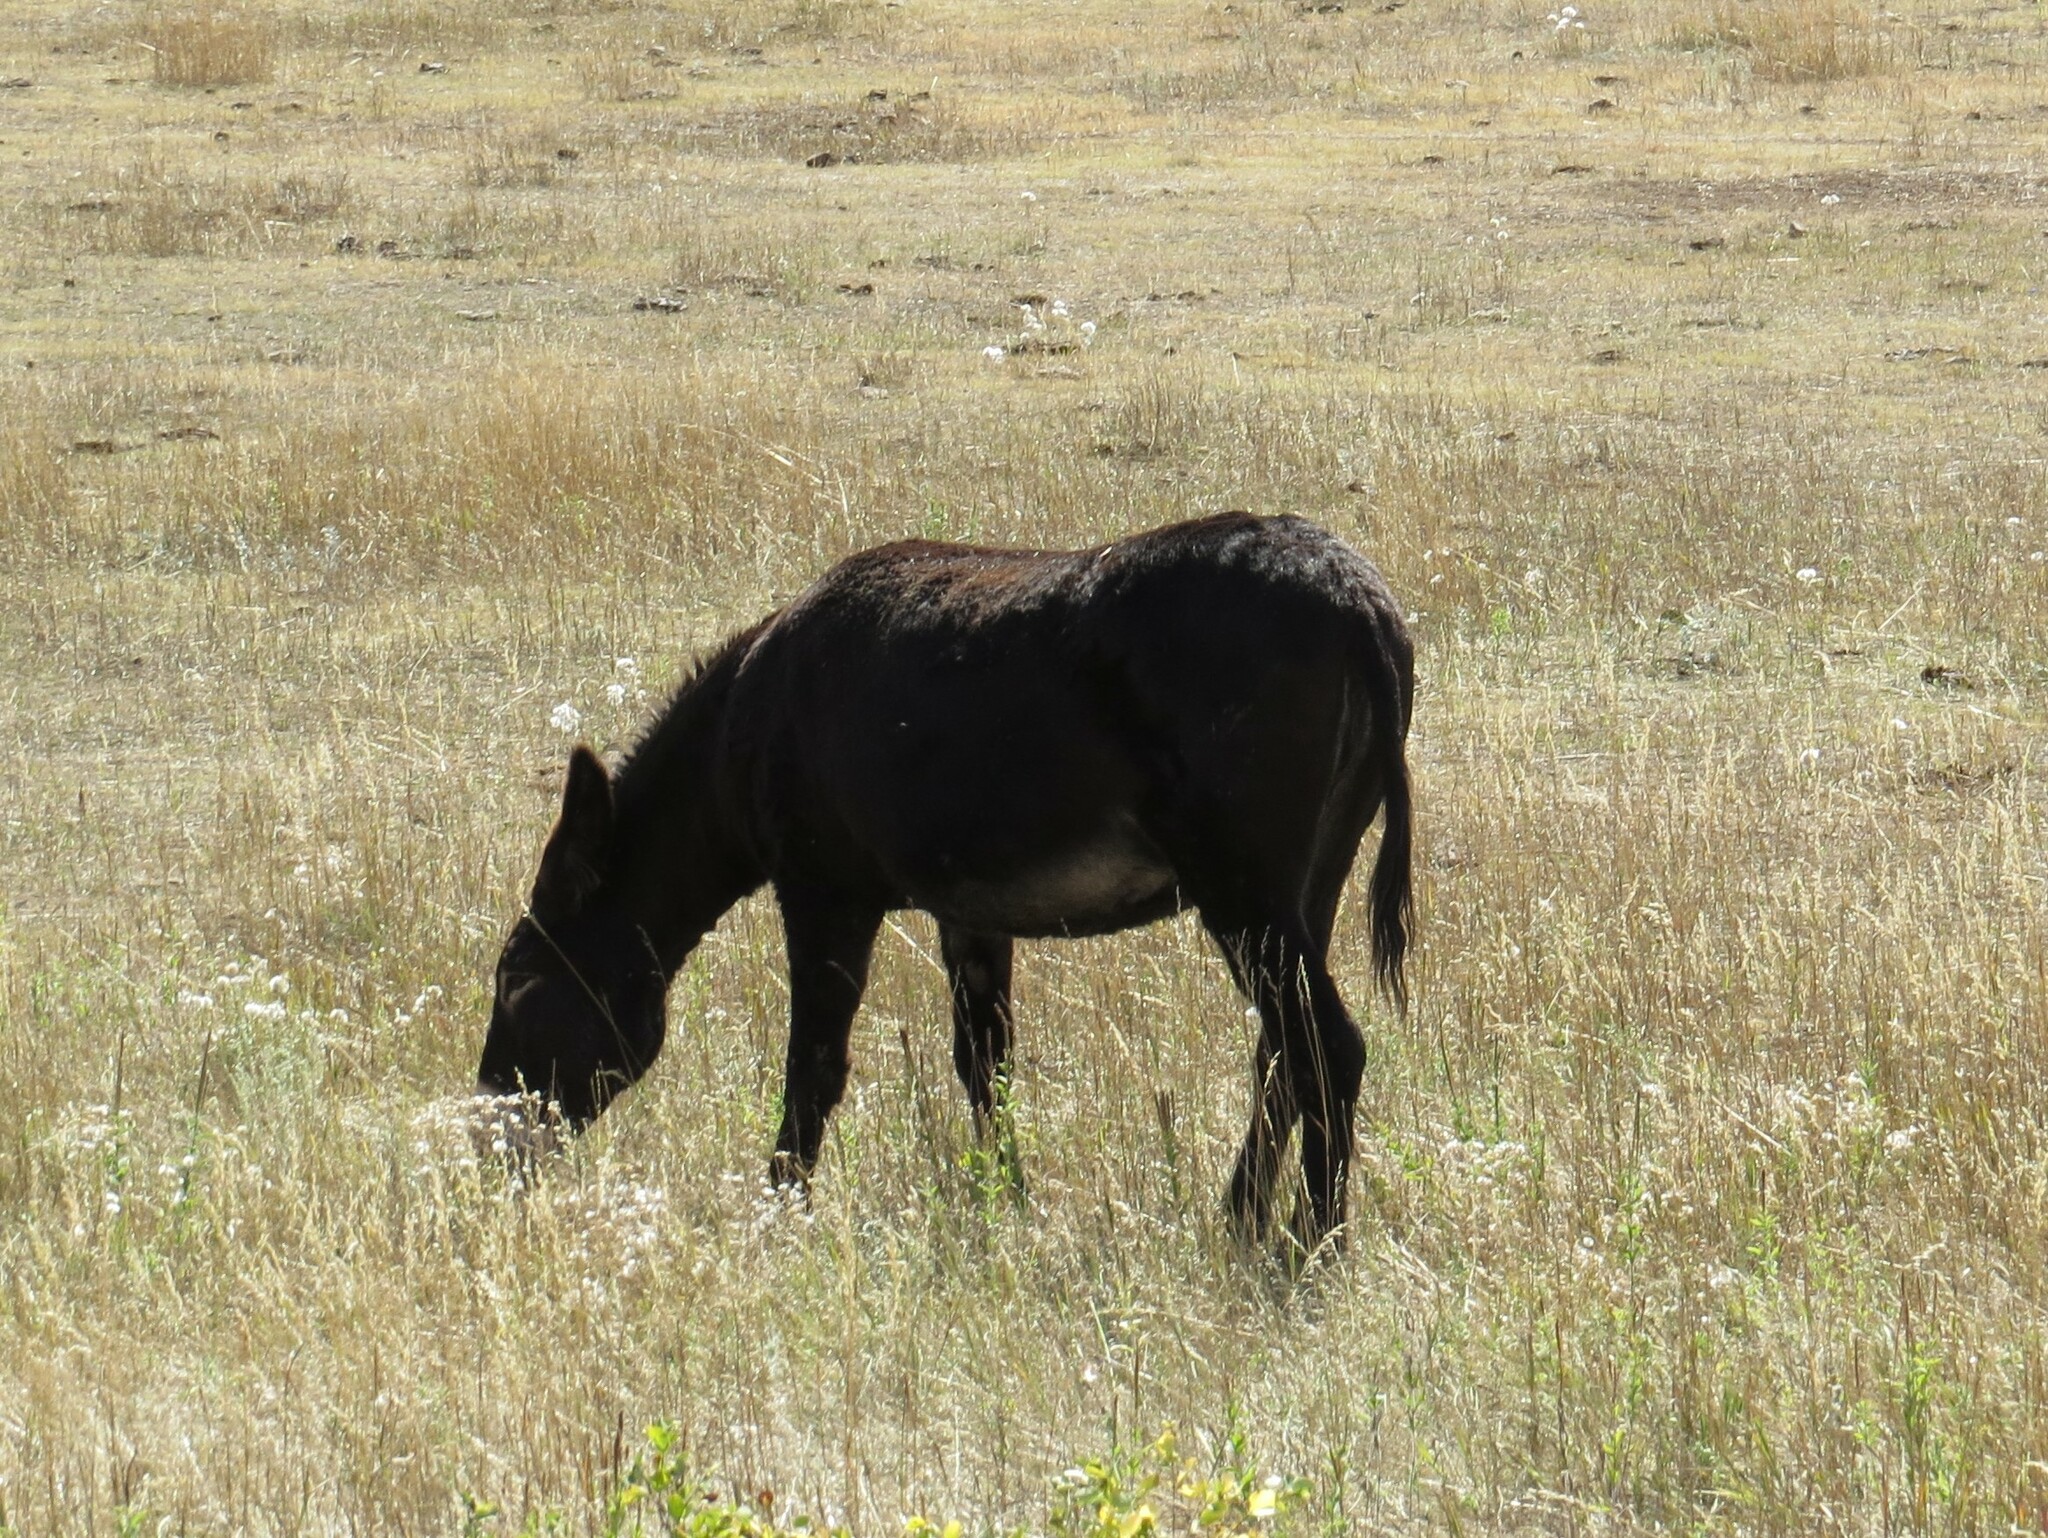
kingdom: Animalia
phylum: Chordata
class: Mammalia
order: Perissodactyla
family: Equidae
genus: Equus
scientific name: Equus asinus
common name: Ass
